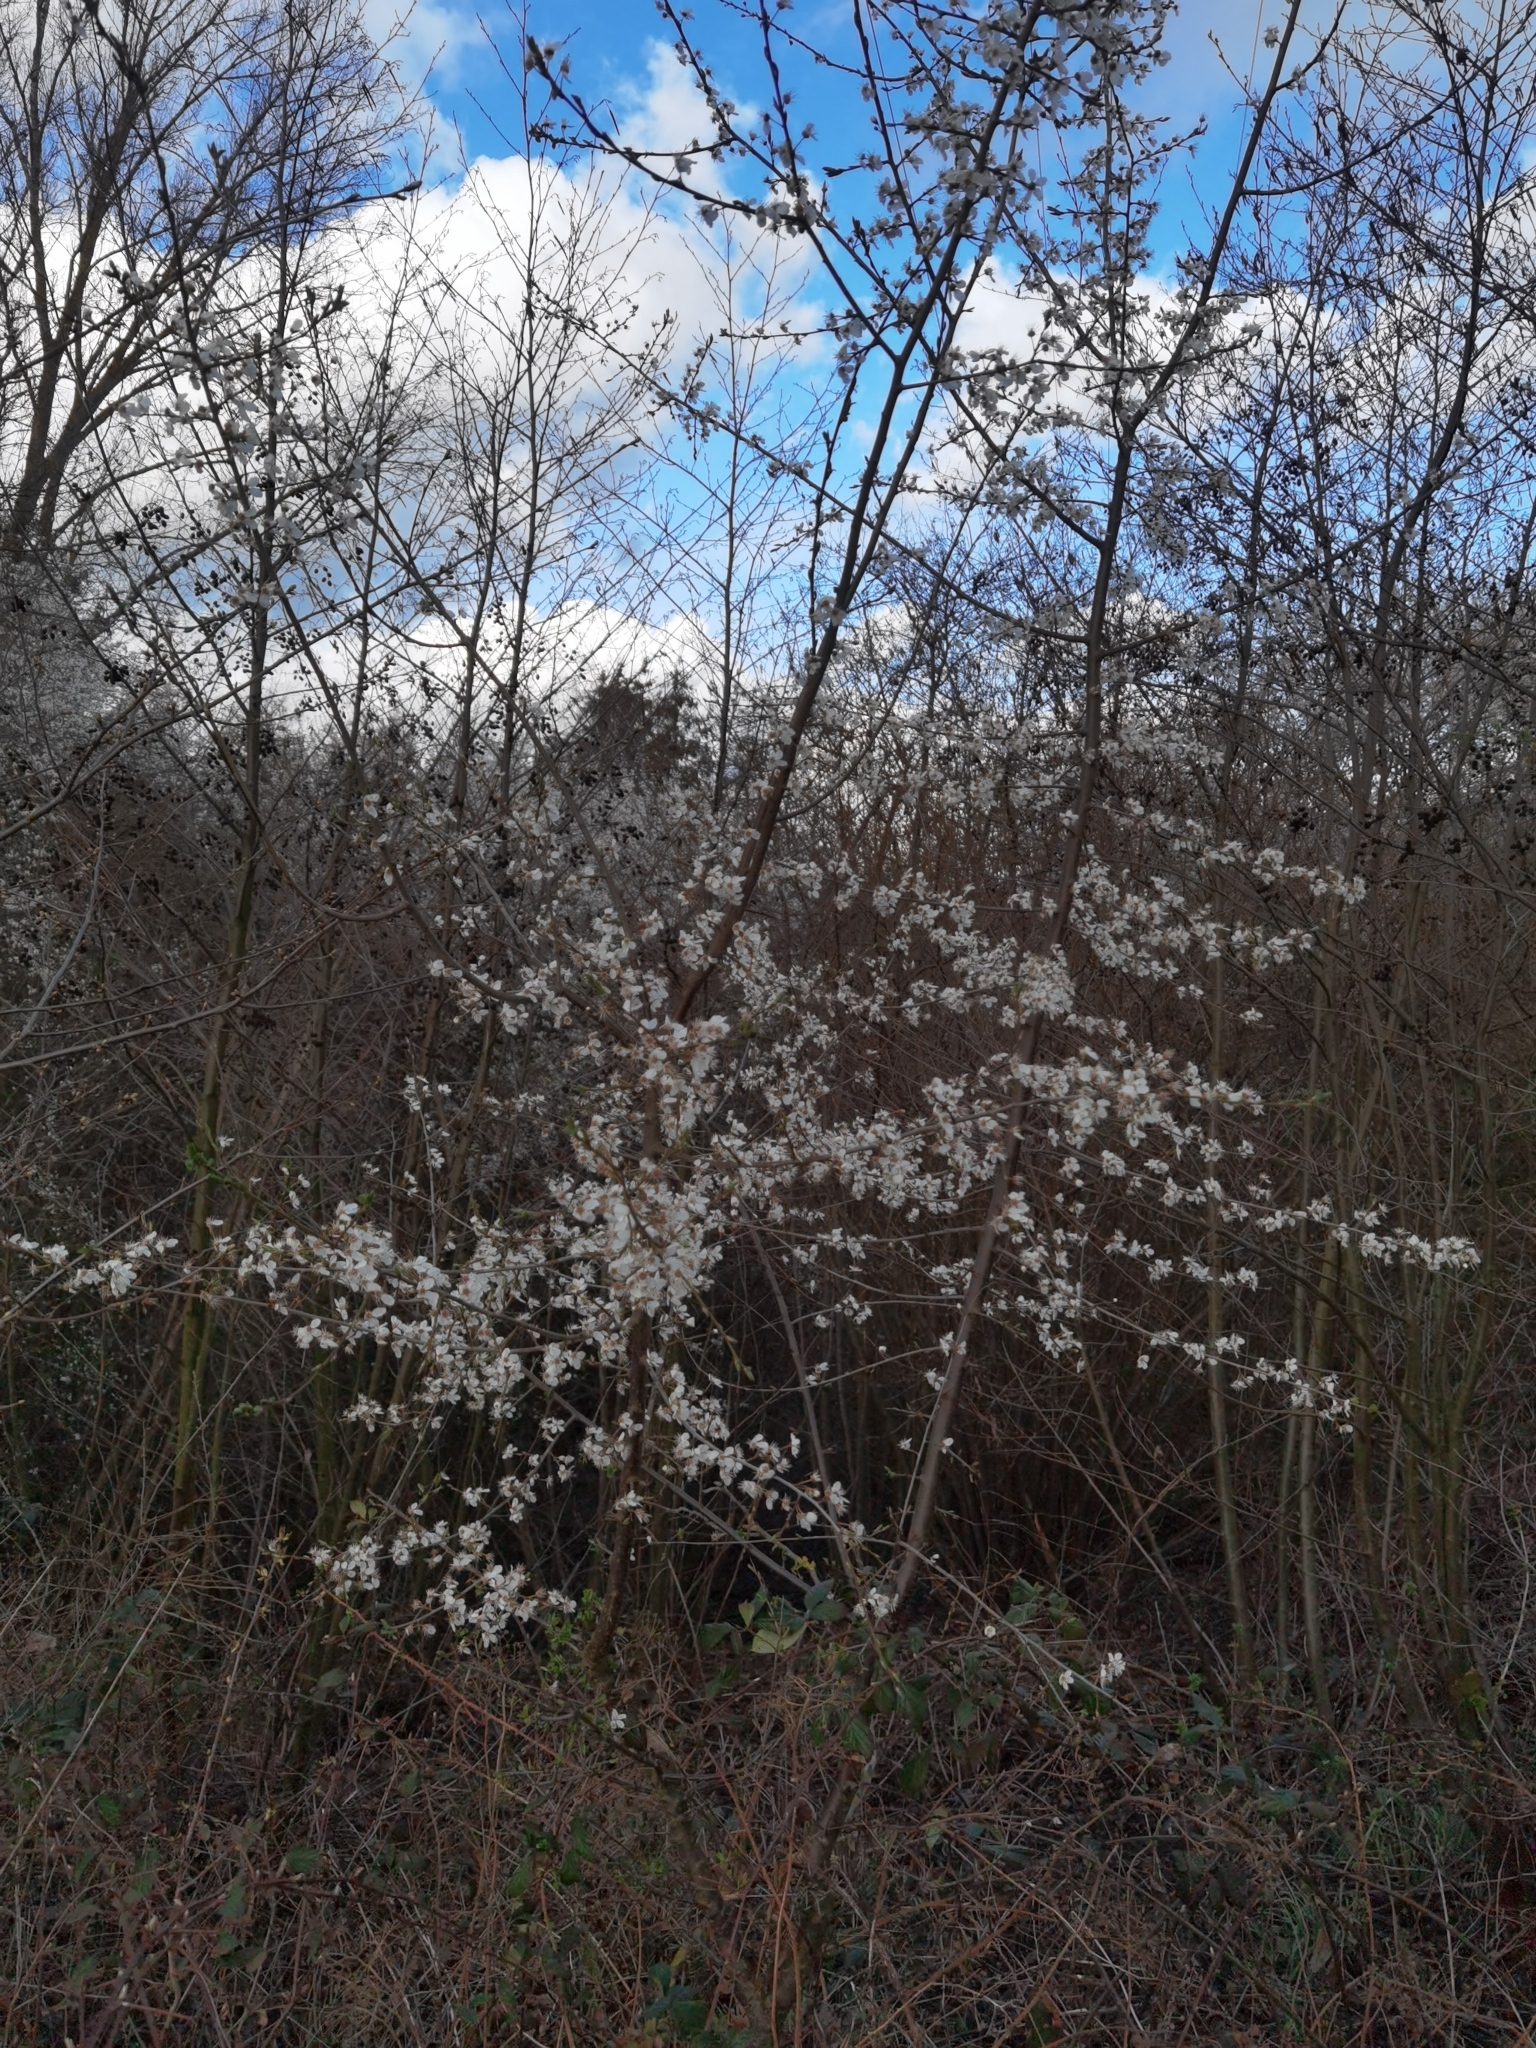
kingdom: Plantae
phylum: Tracheophyta
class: Magnoliopsida
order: Rosales
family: Rosaceae
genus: Prunus
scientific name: Prunus cerasifera
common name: Cherry plum
